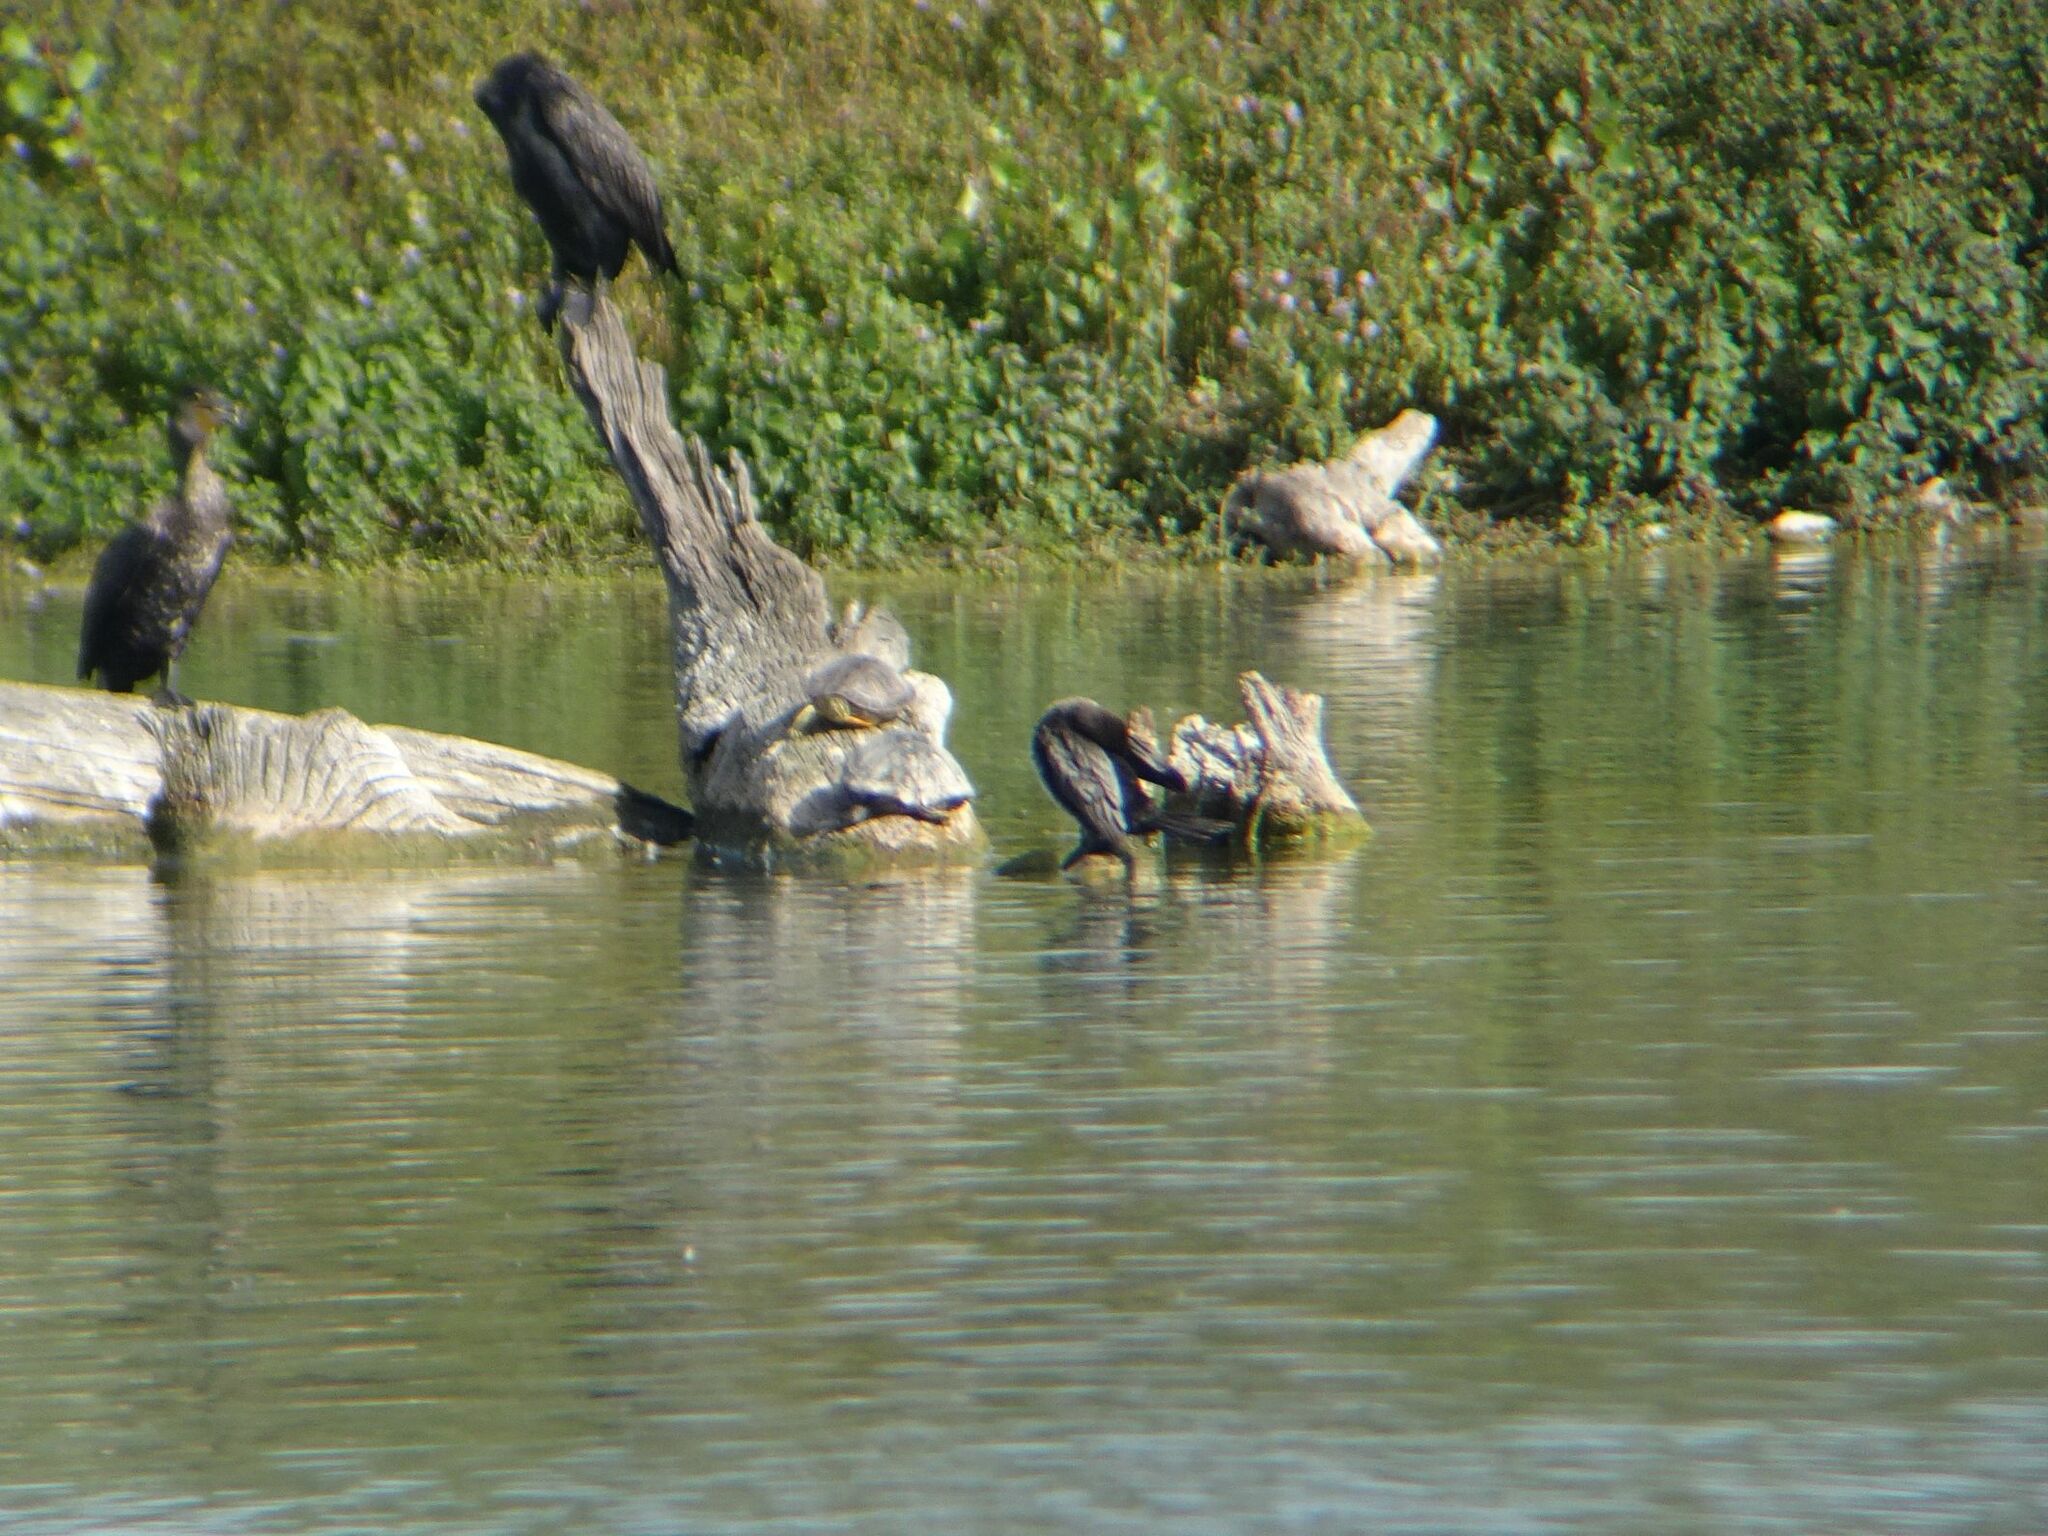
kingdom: Animalia
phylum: Chordata
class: Aves
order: Suliformes
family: Phalacrocoracidae
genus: Microcarbo
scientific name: Microcarbo pygmaeus
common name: Pygmy cormorant
